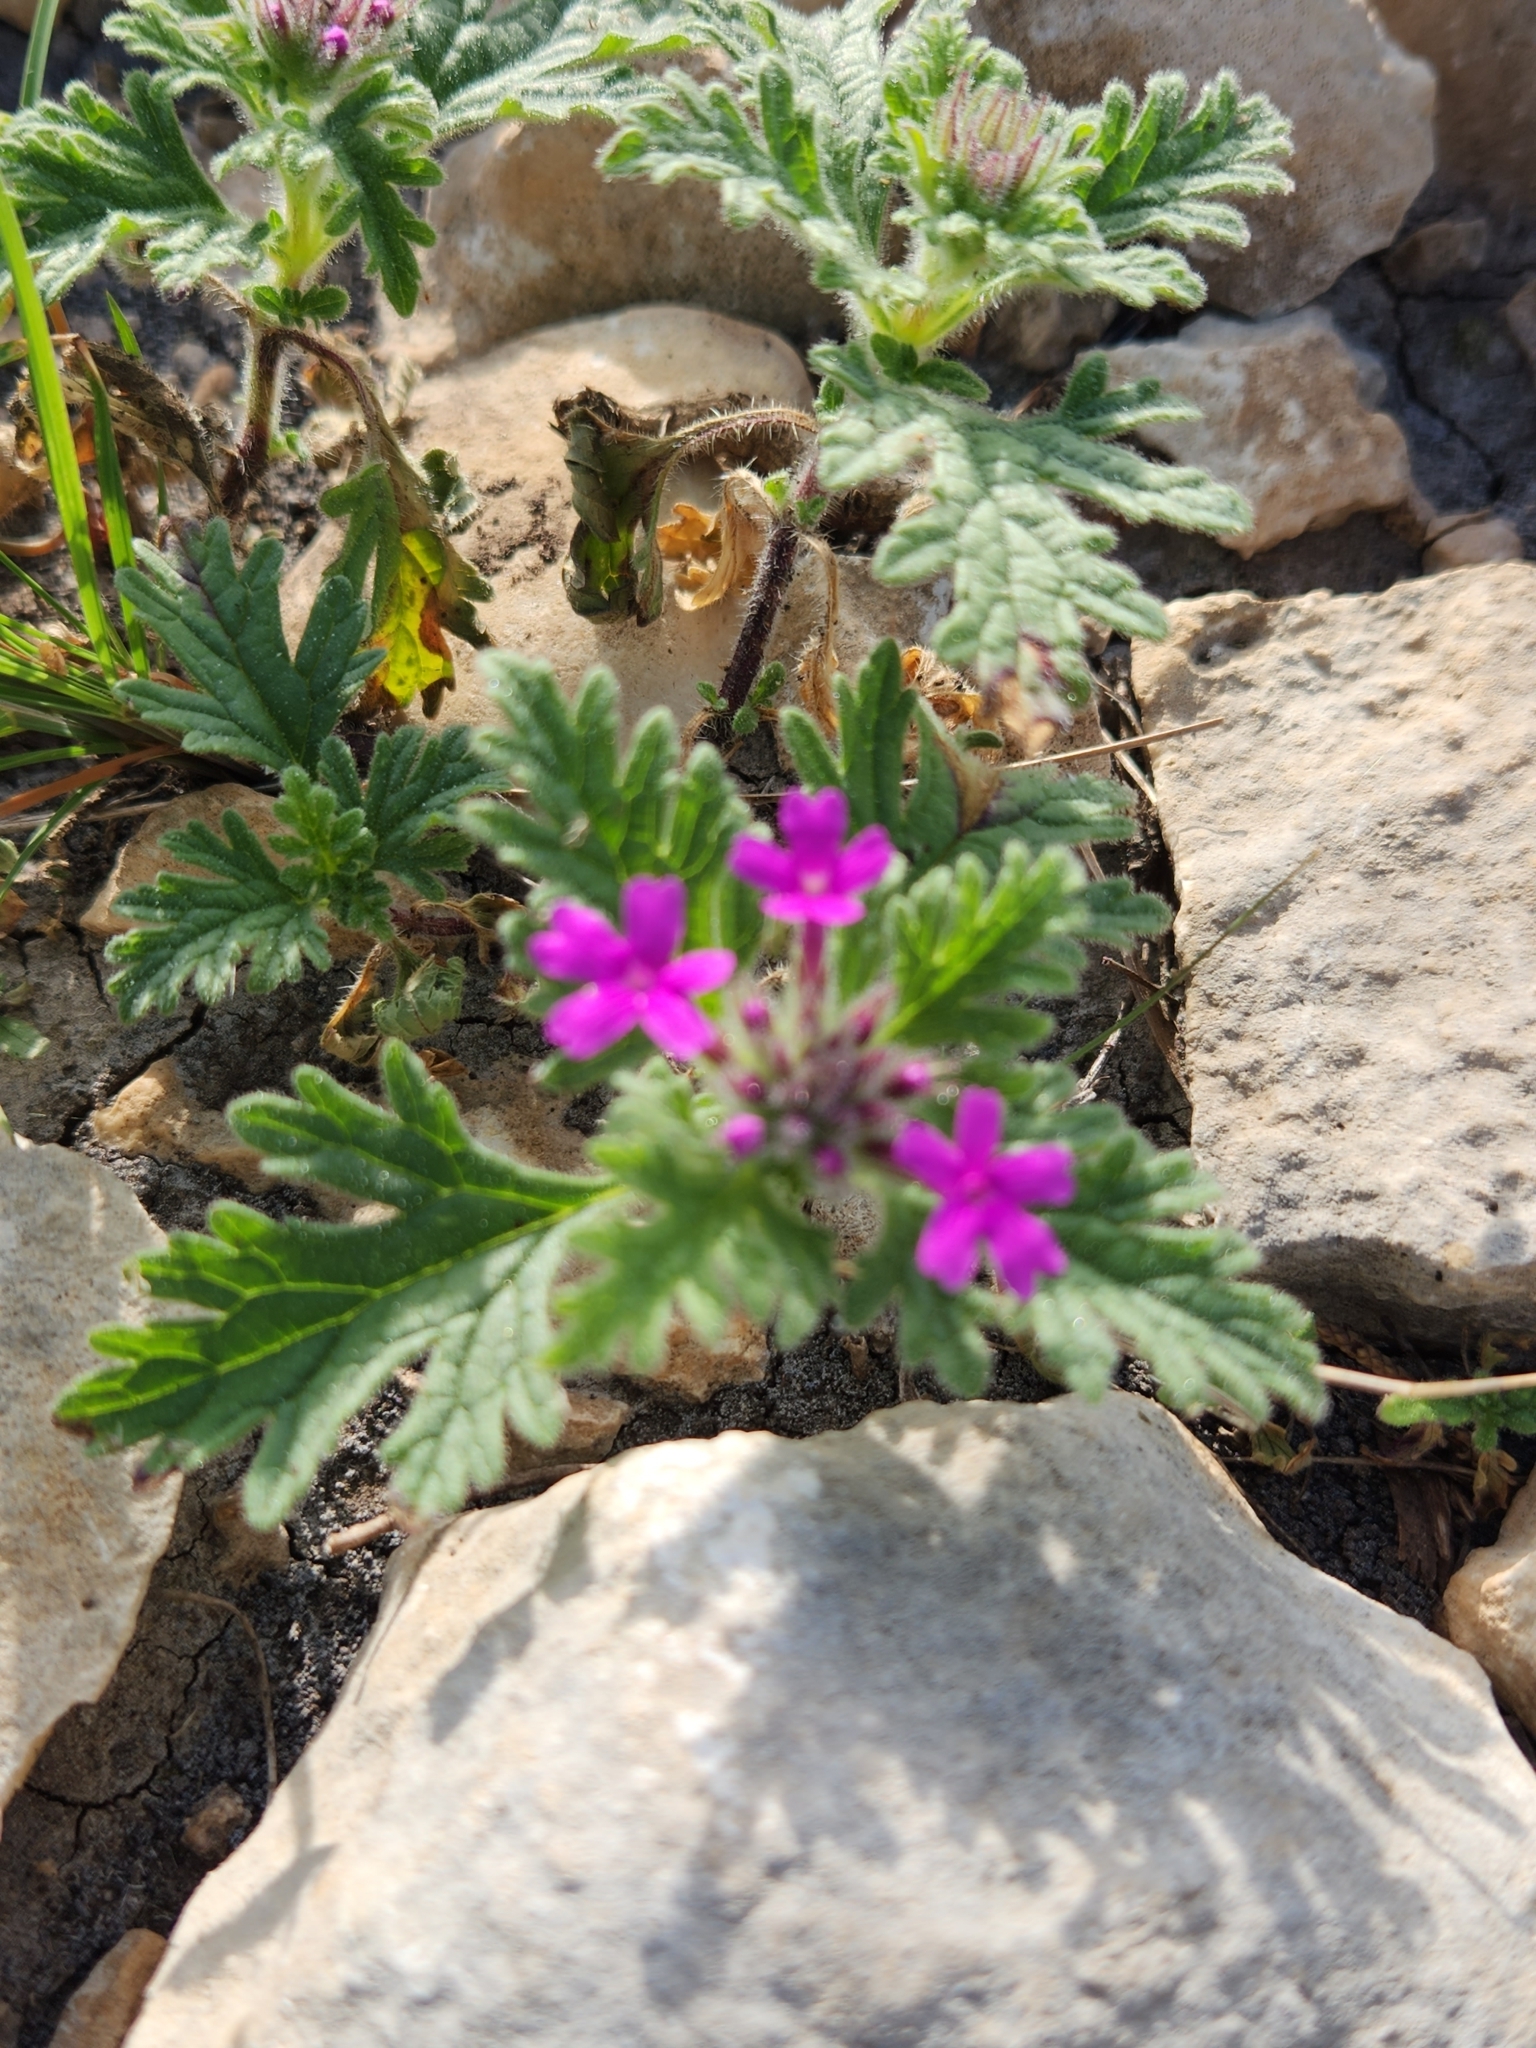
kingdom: Plantae
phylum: Tracheophyta
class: Magnoliopsida
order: Lamiales
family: Verbenaceae
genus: Verbena
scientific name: Verbena pumila
